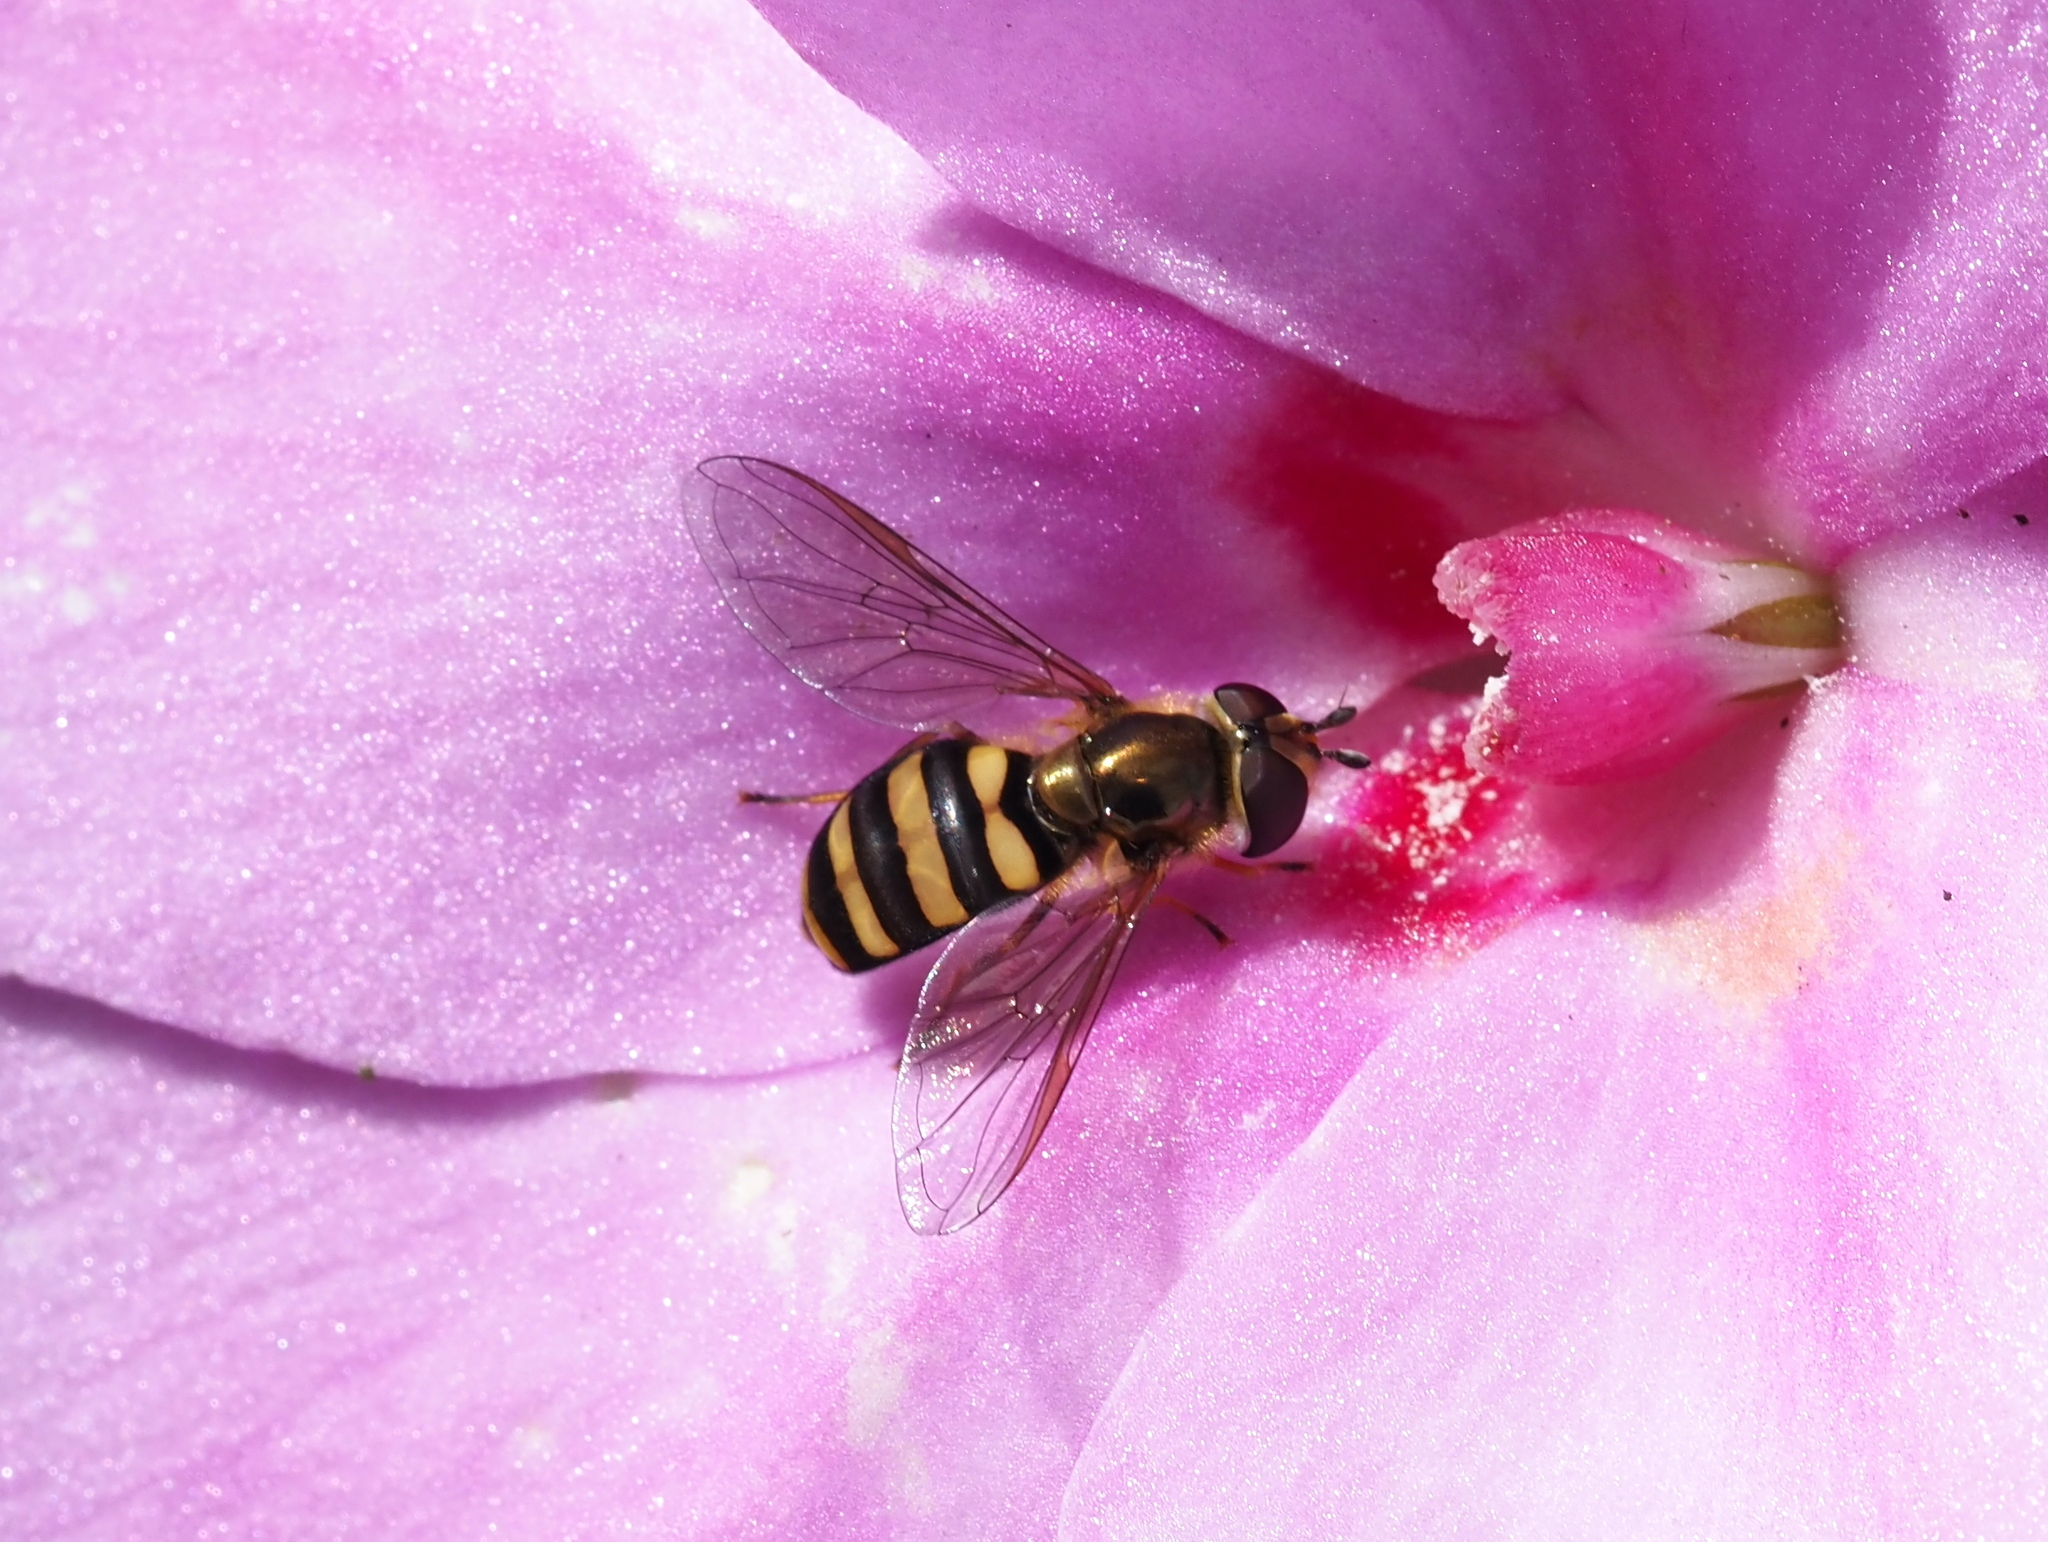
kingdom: Animalia
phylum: Arthropoda
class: Insecta
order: Diptera
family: Syrphidae
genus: Eupeodes
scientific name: Eupeodes
